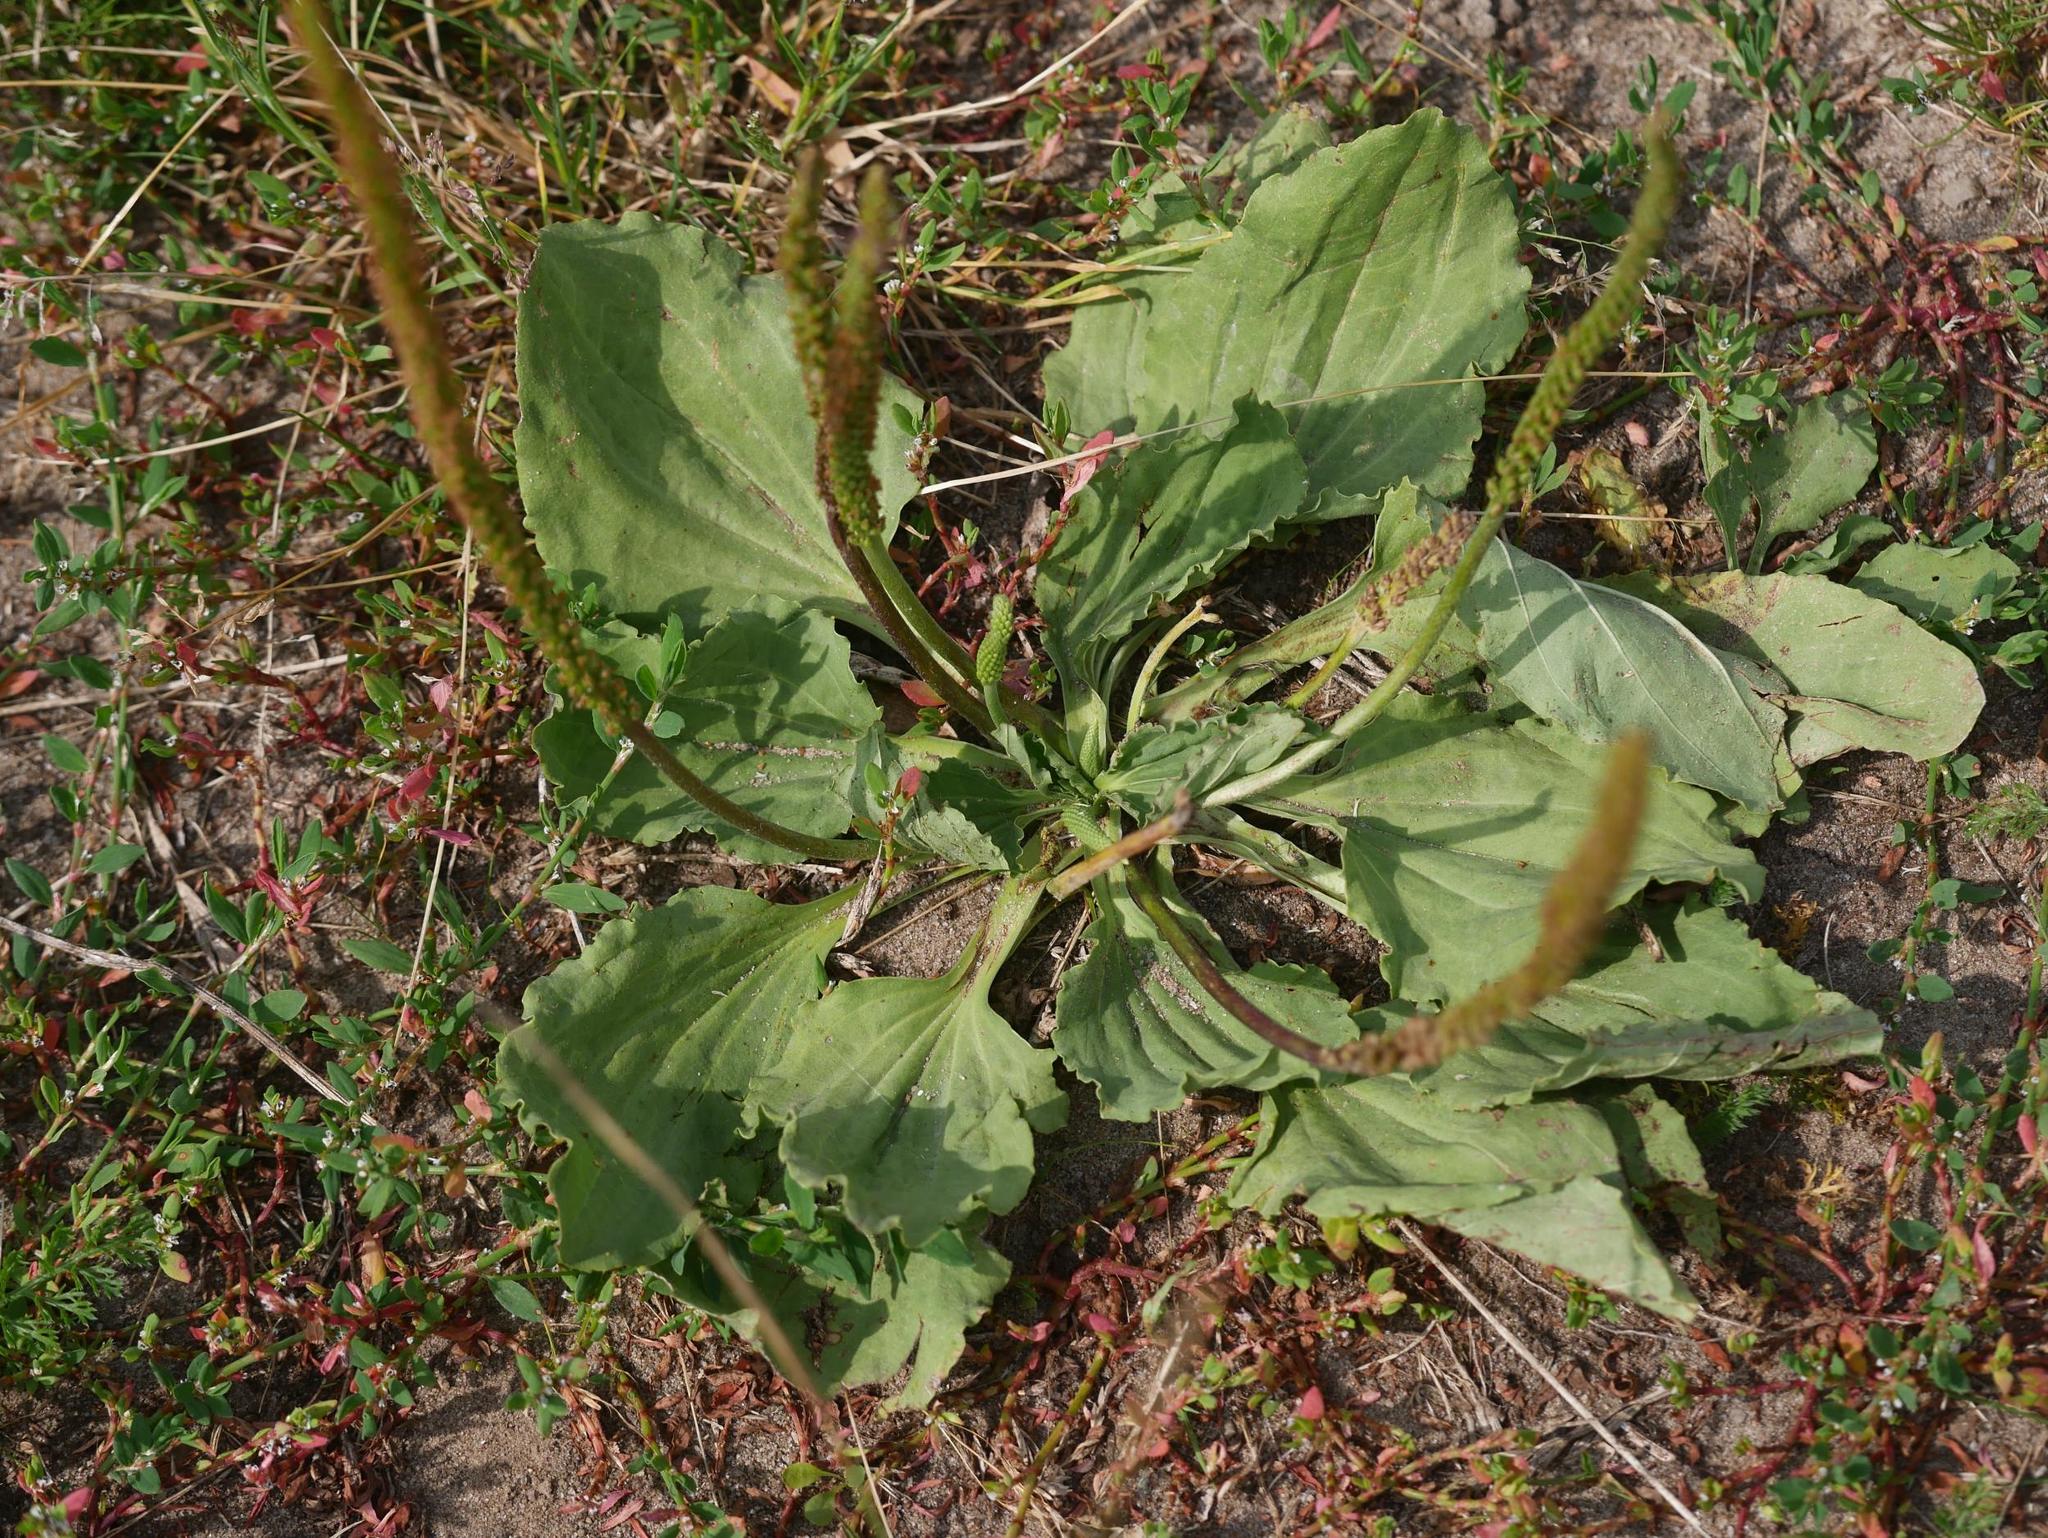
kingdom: Plantae
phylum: Tracheophyta
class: Magnoliopsida
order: Lamiales
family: Plantaginaceae
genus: Plantago
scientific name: Plantago major
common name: Common plantain
